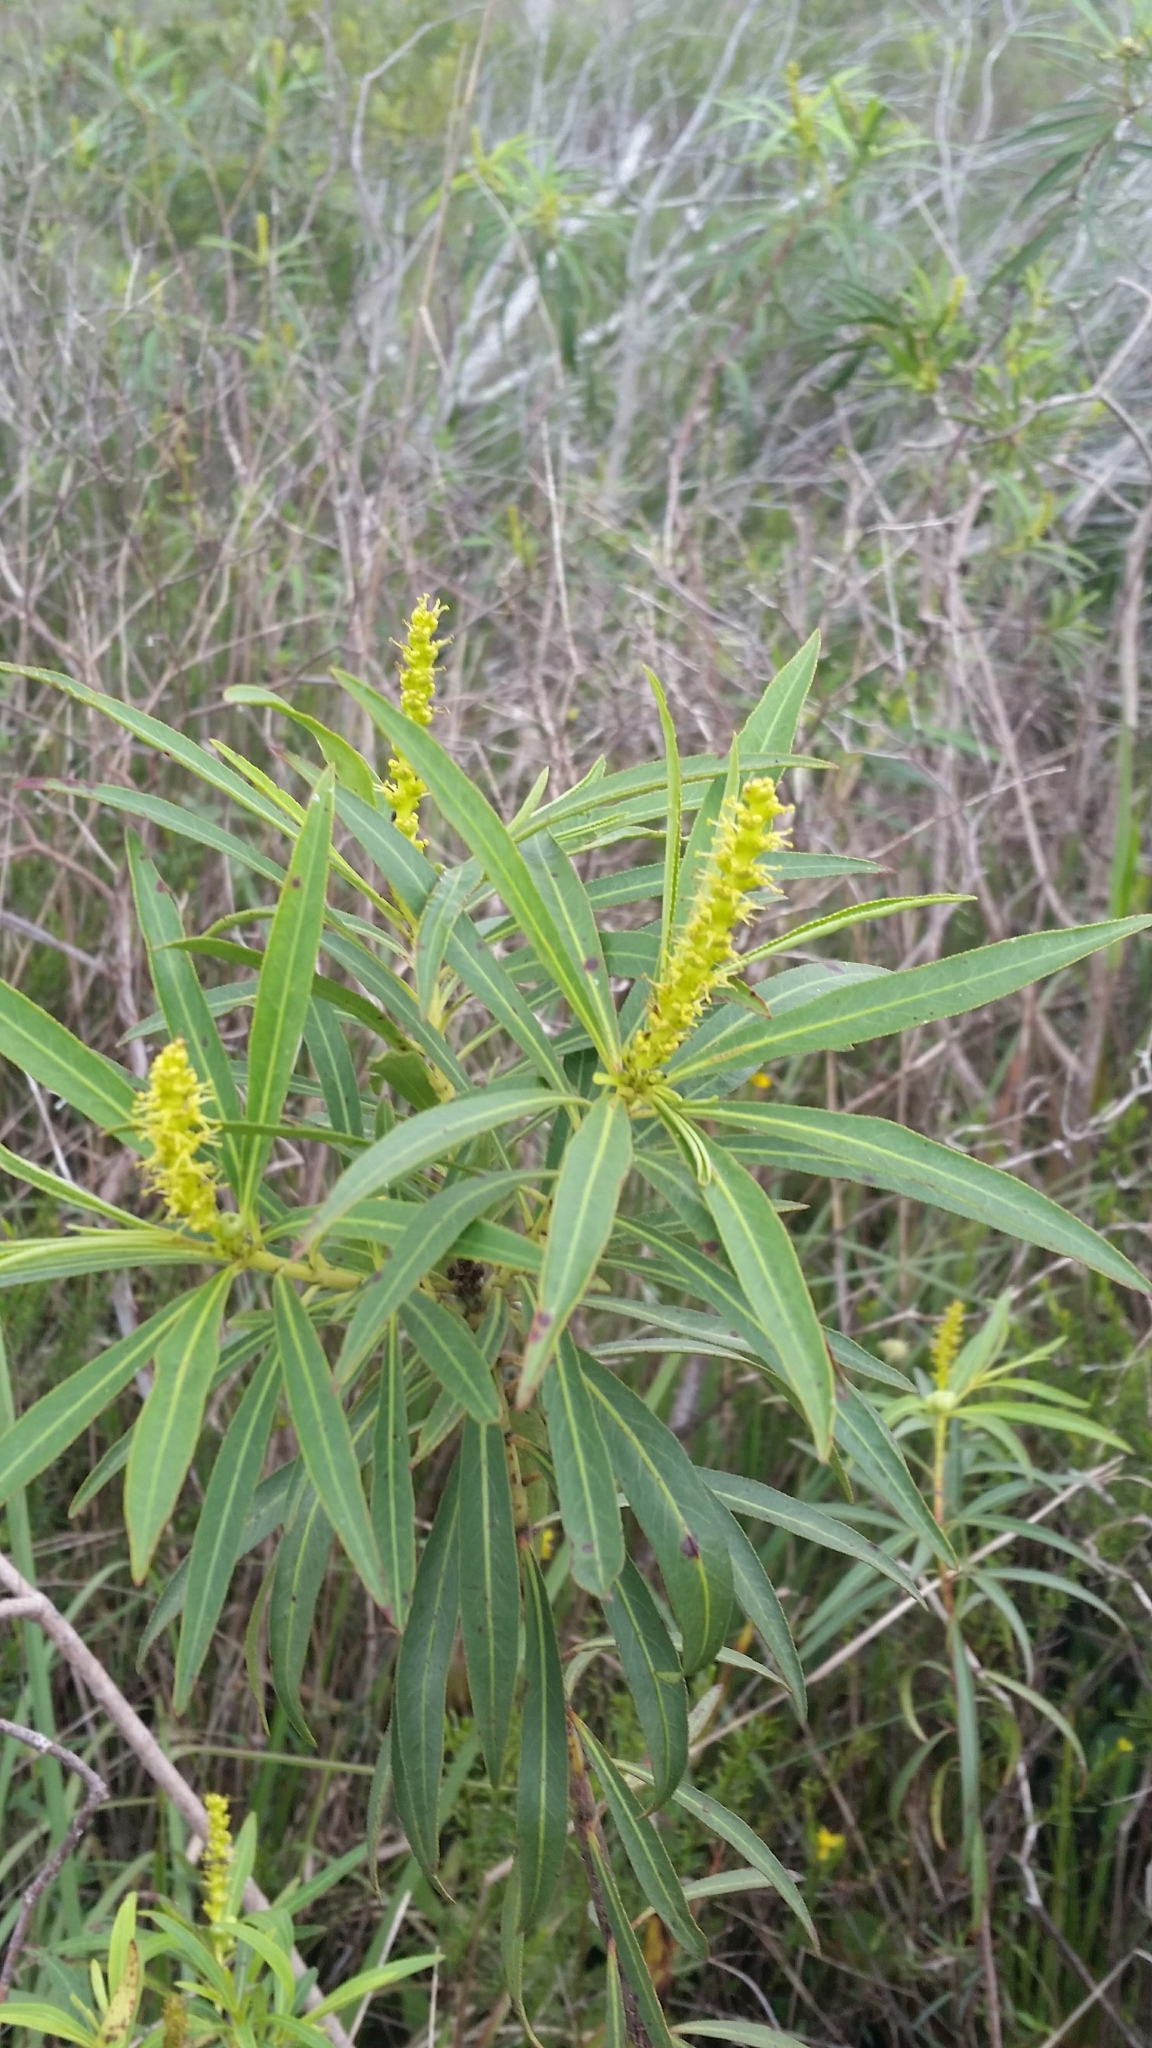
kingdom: Plantae
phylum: Tracheophyta
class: Magnoliopsida
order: Malpighiales
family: Euphorbiaceae
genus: Stillingia
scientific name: Stillingia aquatica
